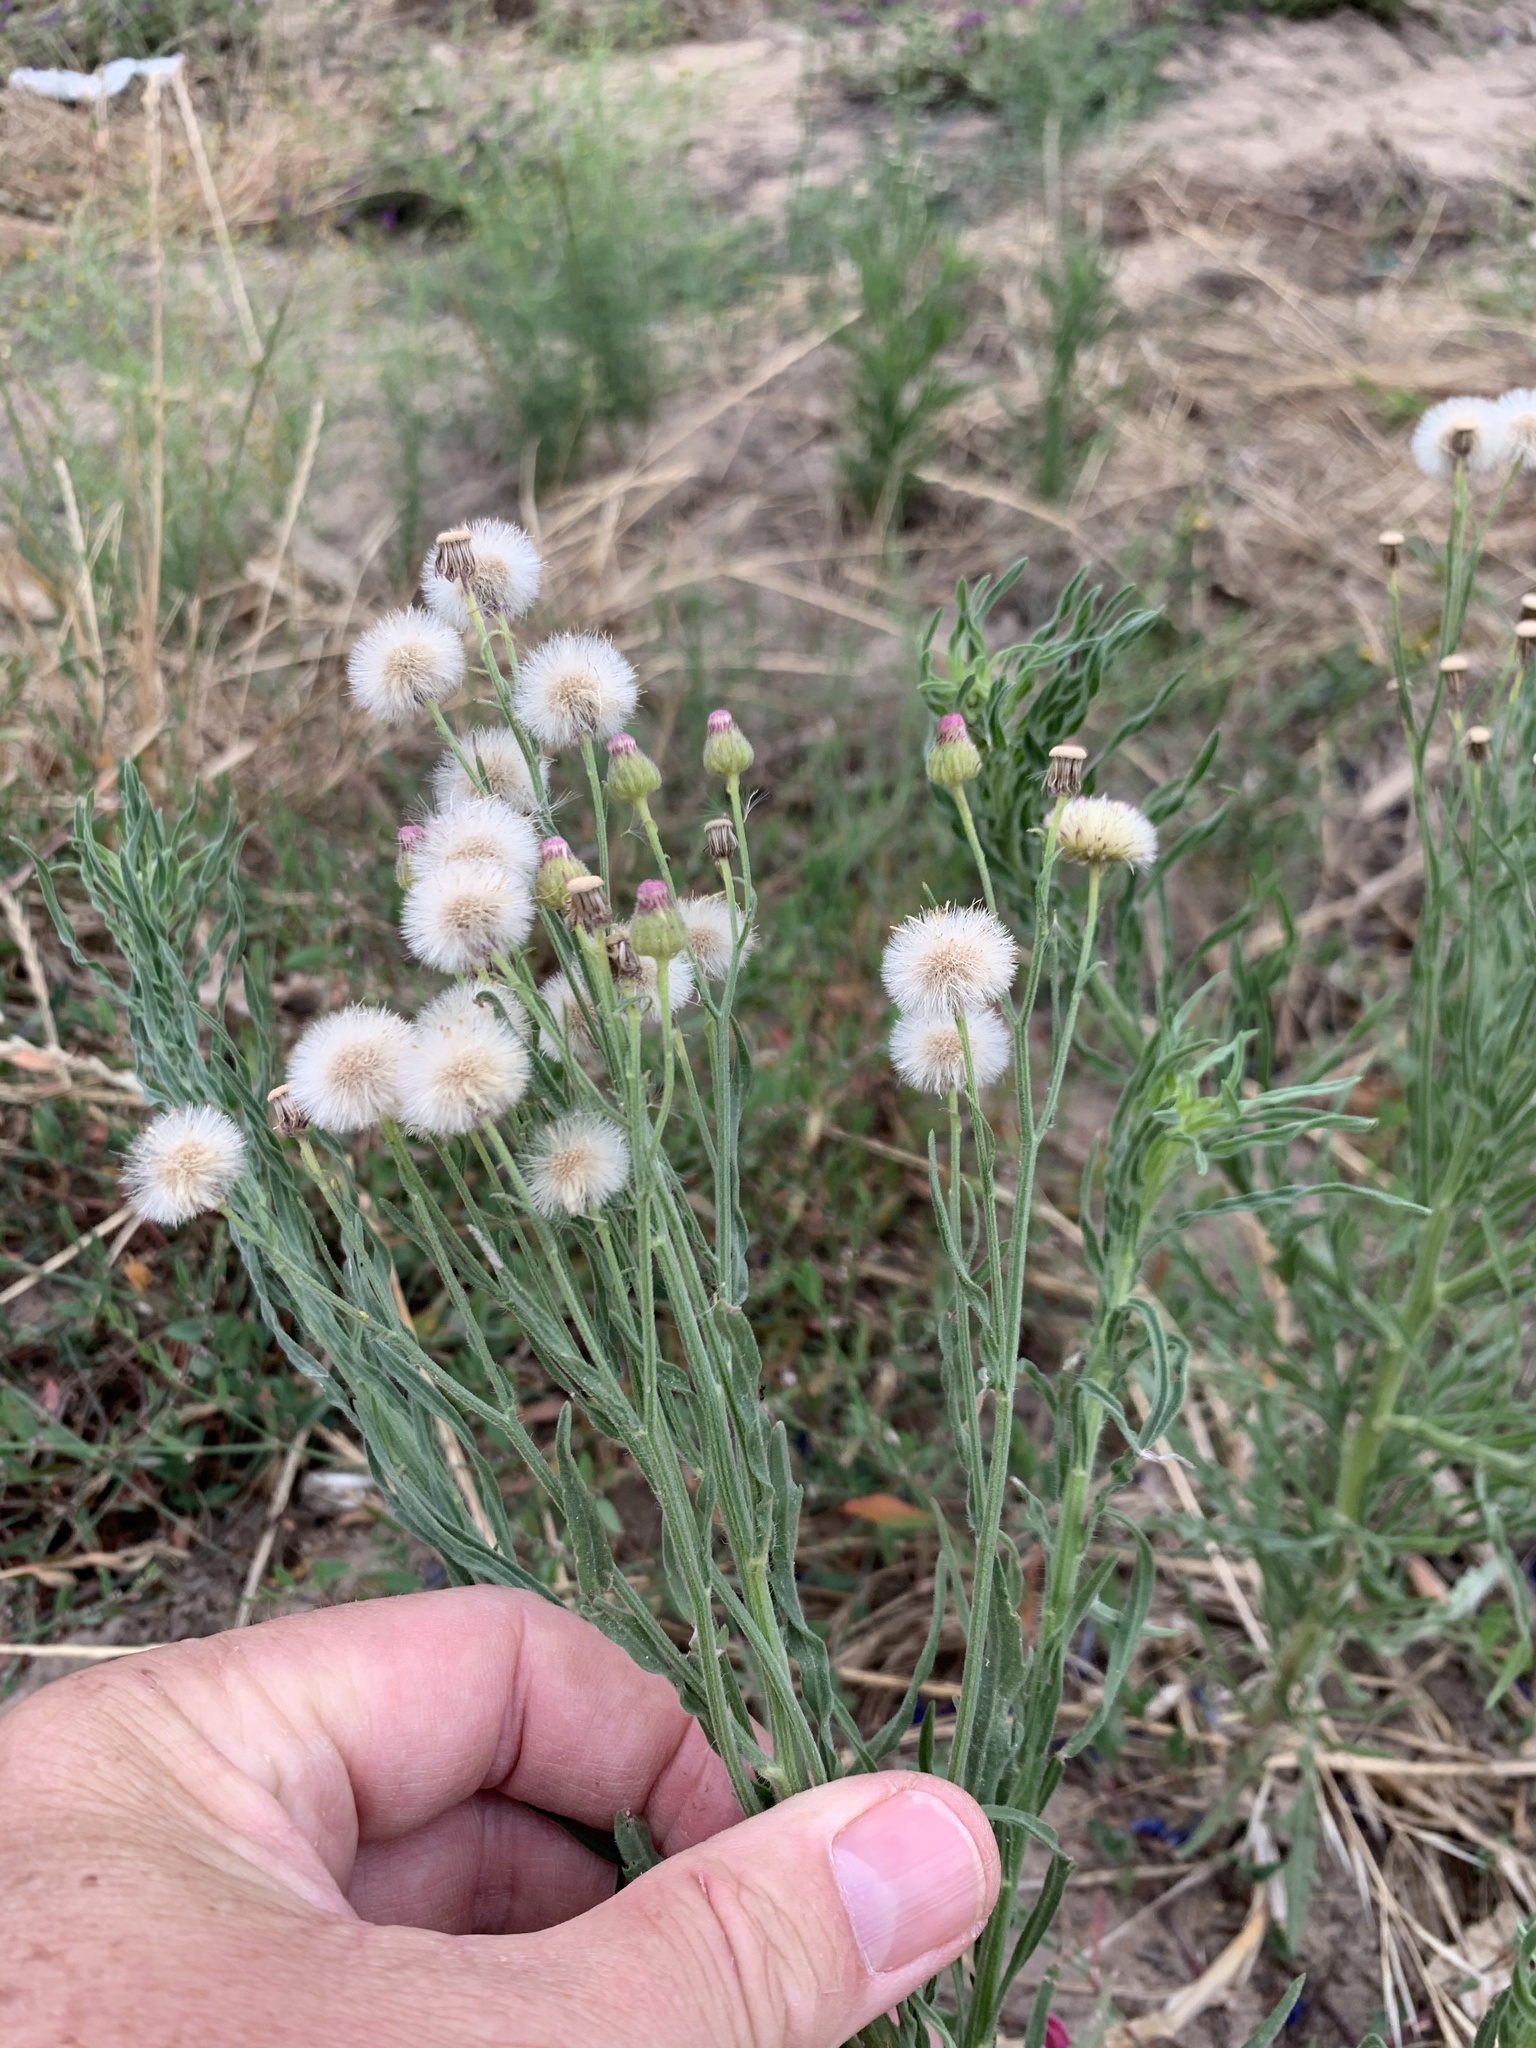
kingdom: Plantae
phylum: Tracheophyta
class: Magnoliopsida
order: Asterales
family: Asteraceae
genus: Erigeron
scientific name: Erigeron bonariensis
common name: Argentine fleabane
